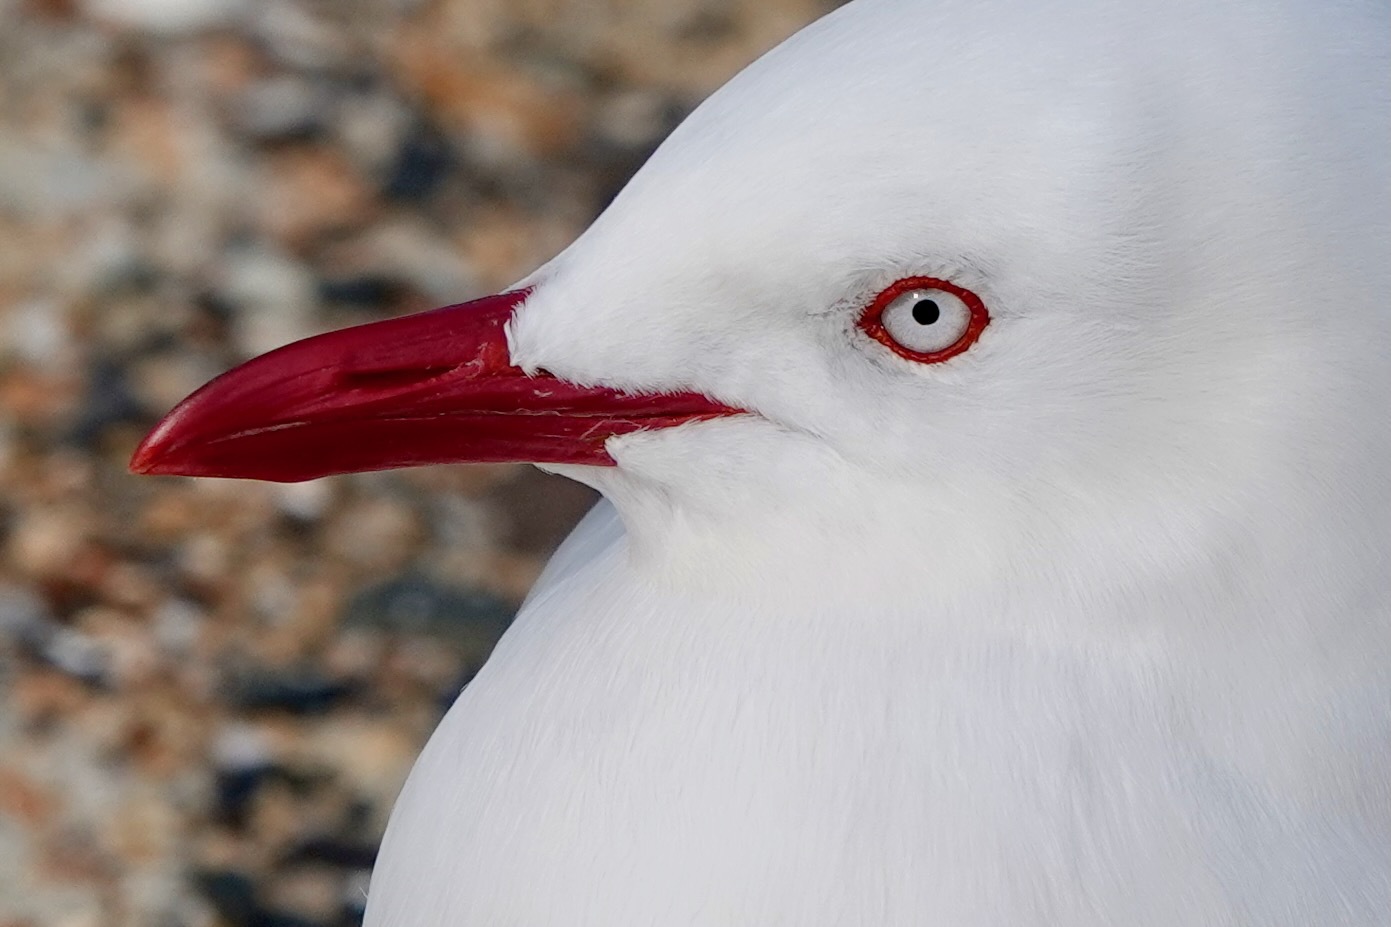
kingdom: Animalia
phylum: Chordata
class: Aves
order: Charadriiformes
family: Laridae
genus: Chroicocephalus
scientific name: Chroicocephalus novaehollandiae
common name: Silver gull
